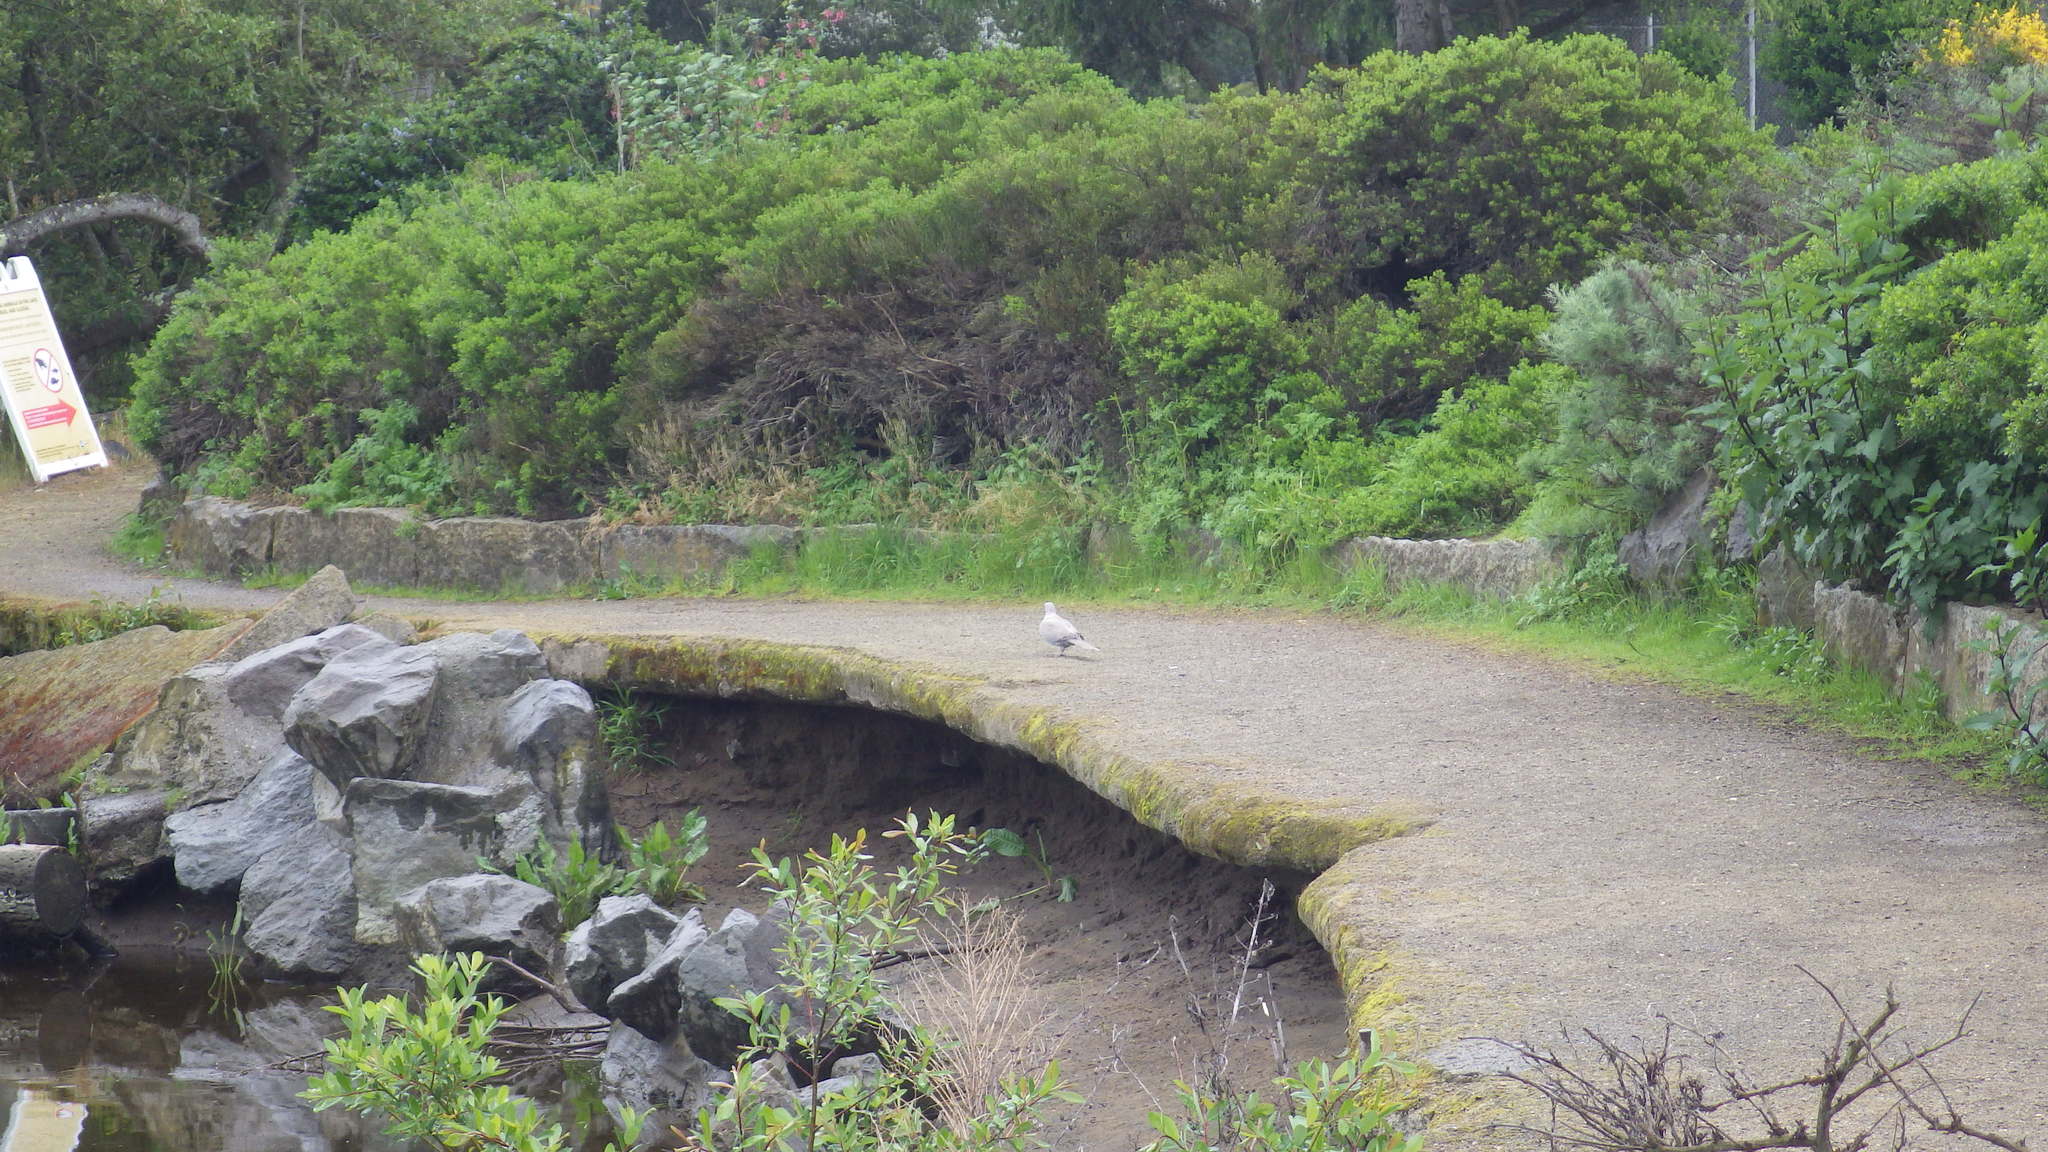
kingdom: Animalia
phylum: Chordata
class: Aves
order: Columbiformes
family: Columbidae
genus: Streptopelia
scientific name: Streptopelia decaocto
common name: Eurasian collared dove
